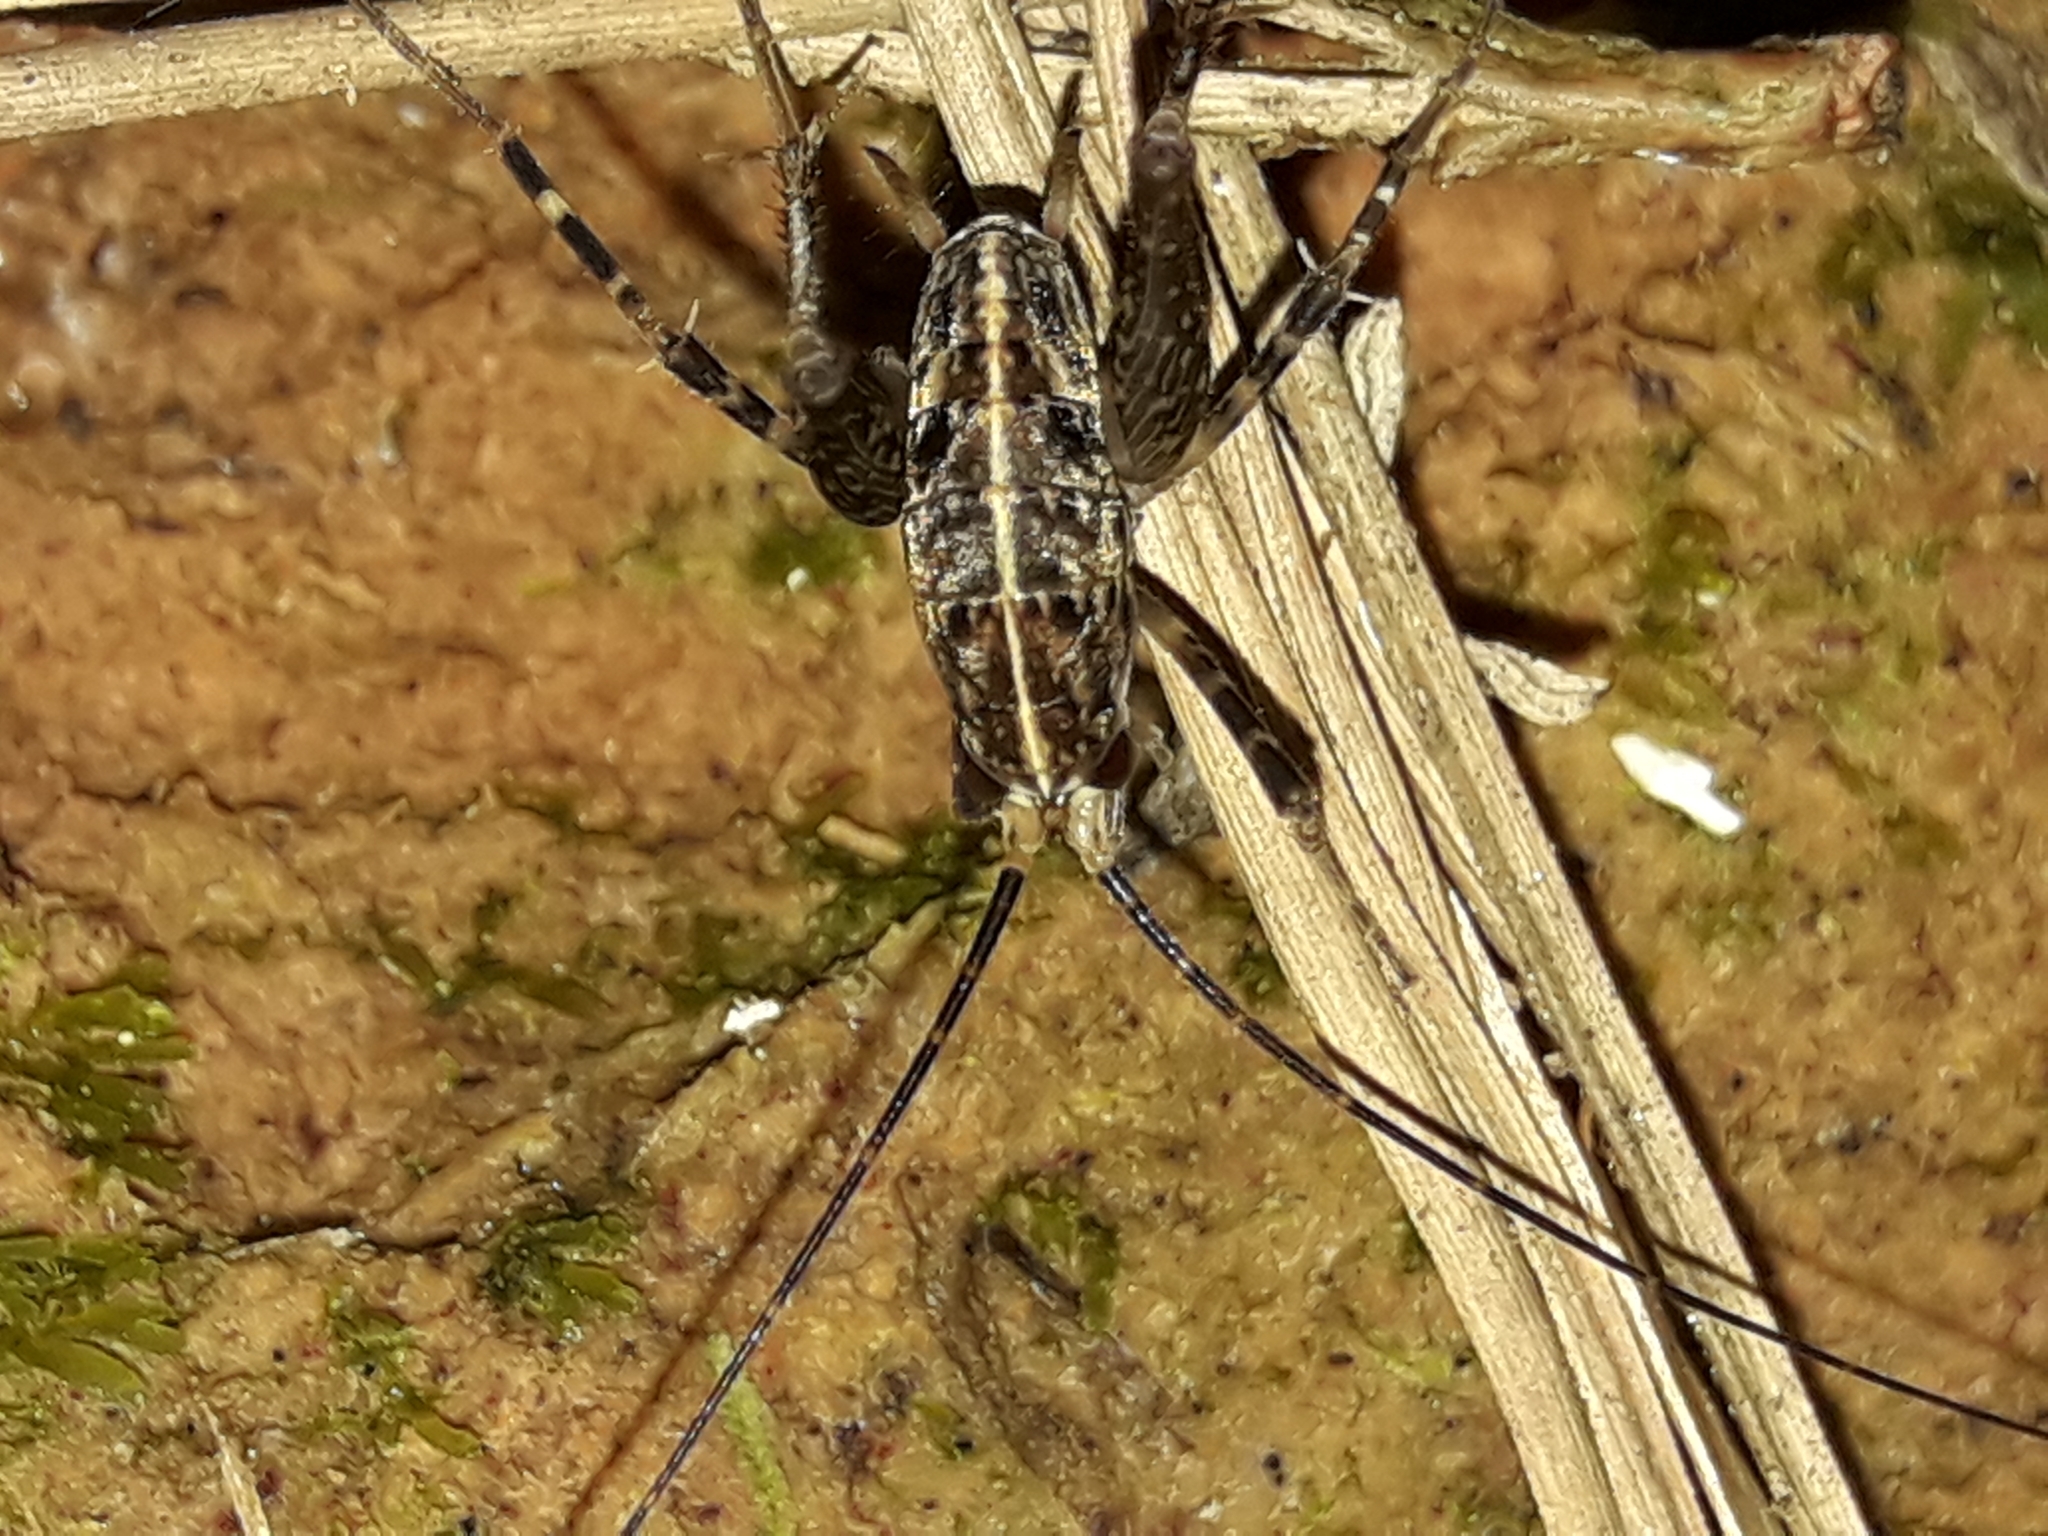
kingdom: Animalia
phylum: Arthropoda
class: Insecta
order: Orthoptera
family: Rhaphidophoridae
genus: Pleioplectron
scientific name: Pleioplectron hudsoni
